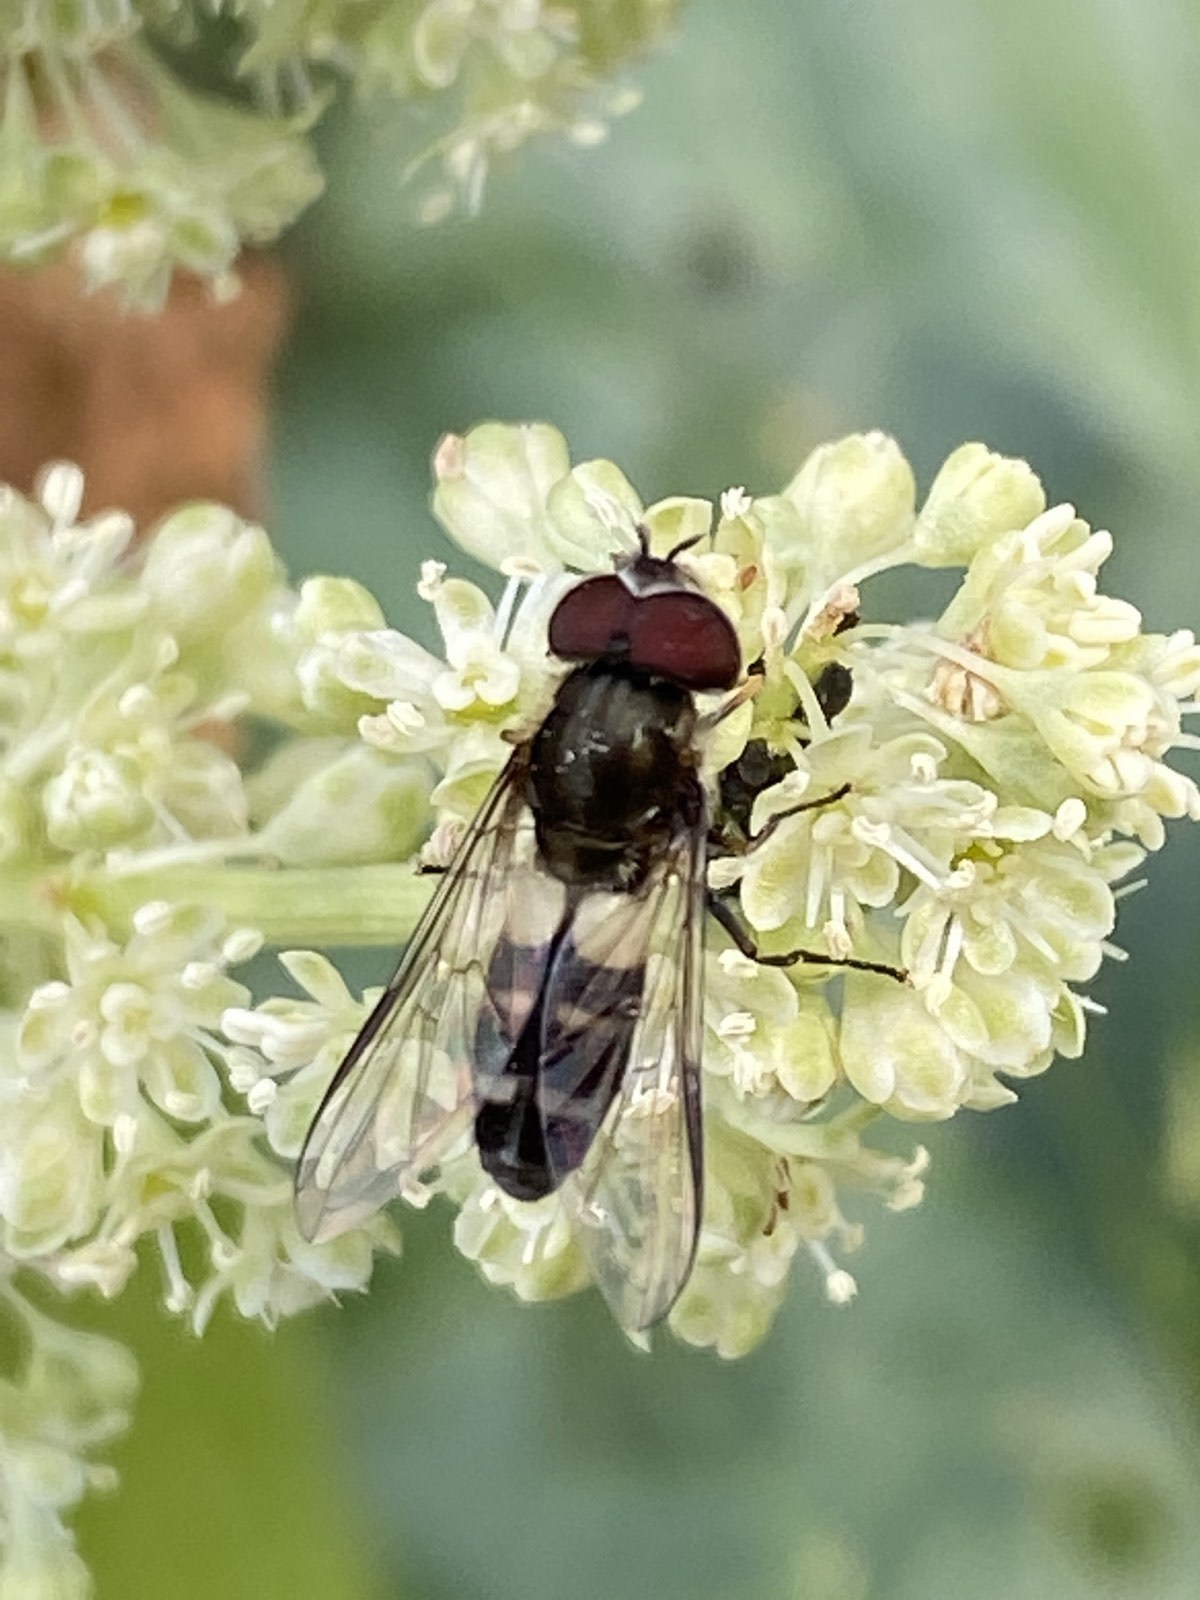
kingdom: Animalia
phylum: Arthropoda
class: Insecta
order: Diptera
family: Syrphidae
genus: Leucozona
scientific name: Leucozona laternaria
